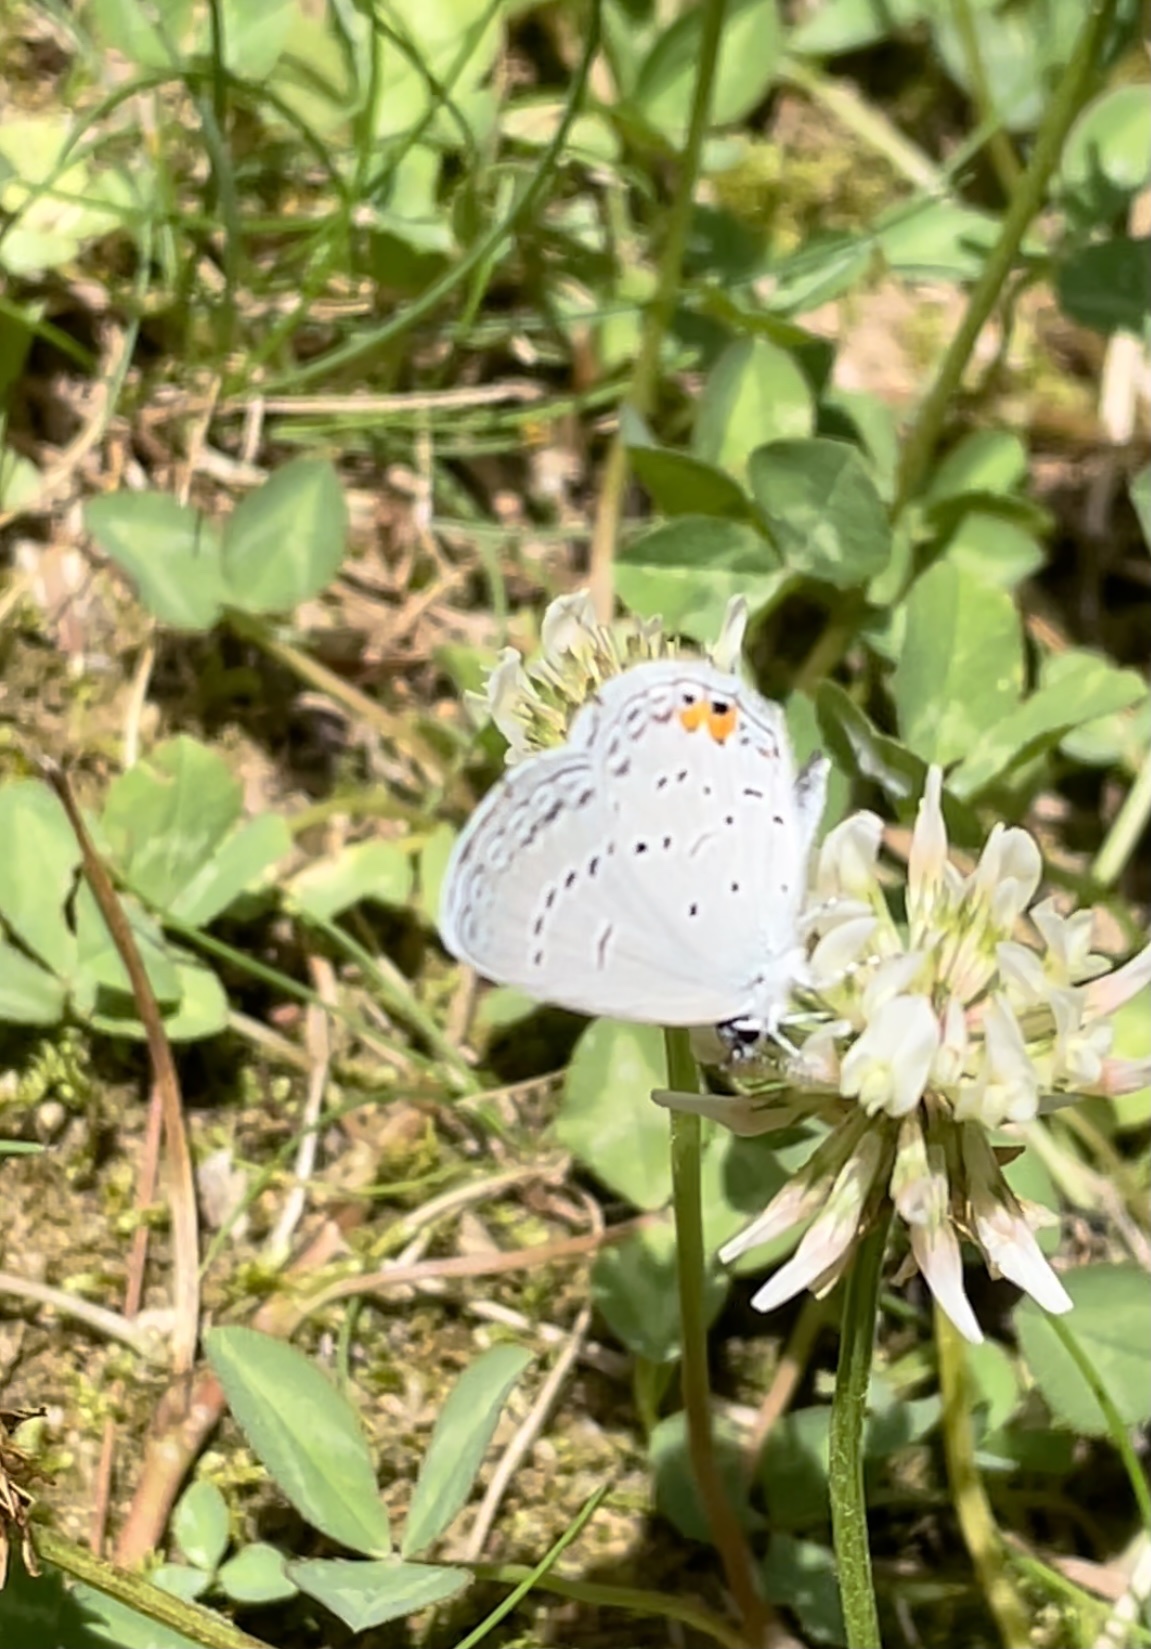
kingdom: Animalia
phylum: Arthropoda
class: Insecta
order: Lepidoptera
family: Lycaenidae
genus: Elkalyce
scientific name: Elkalyce comyntas
